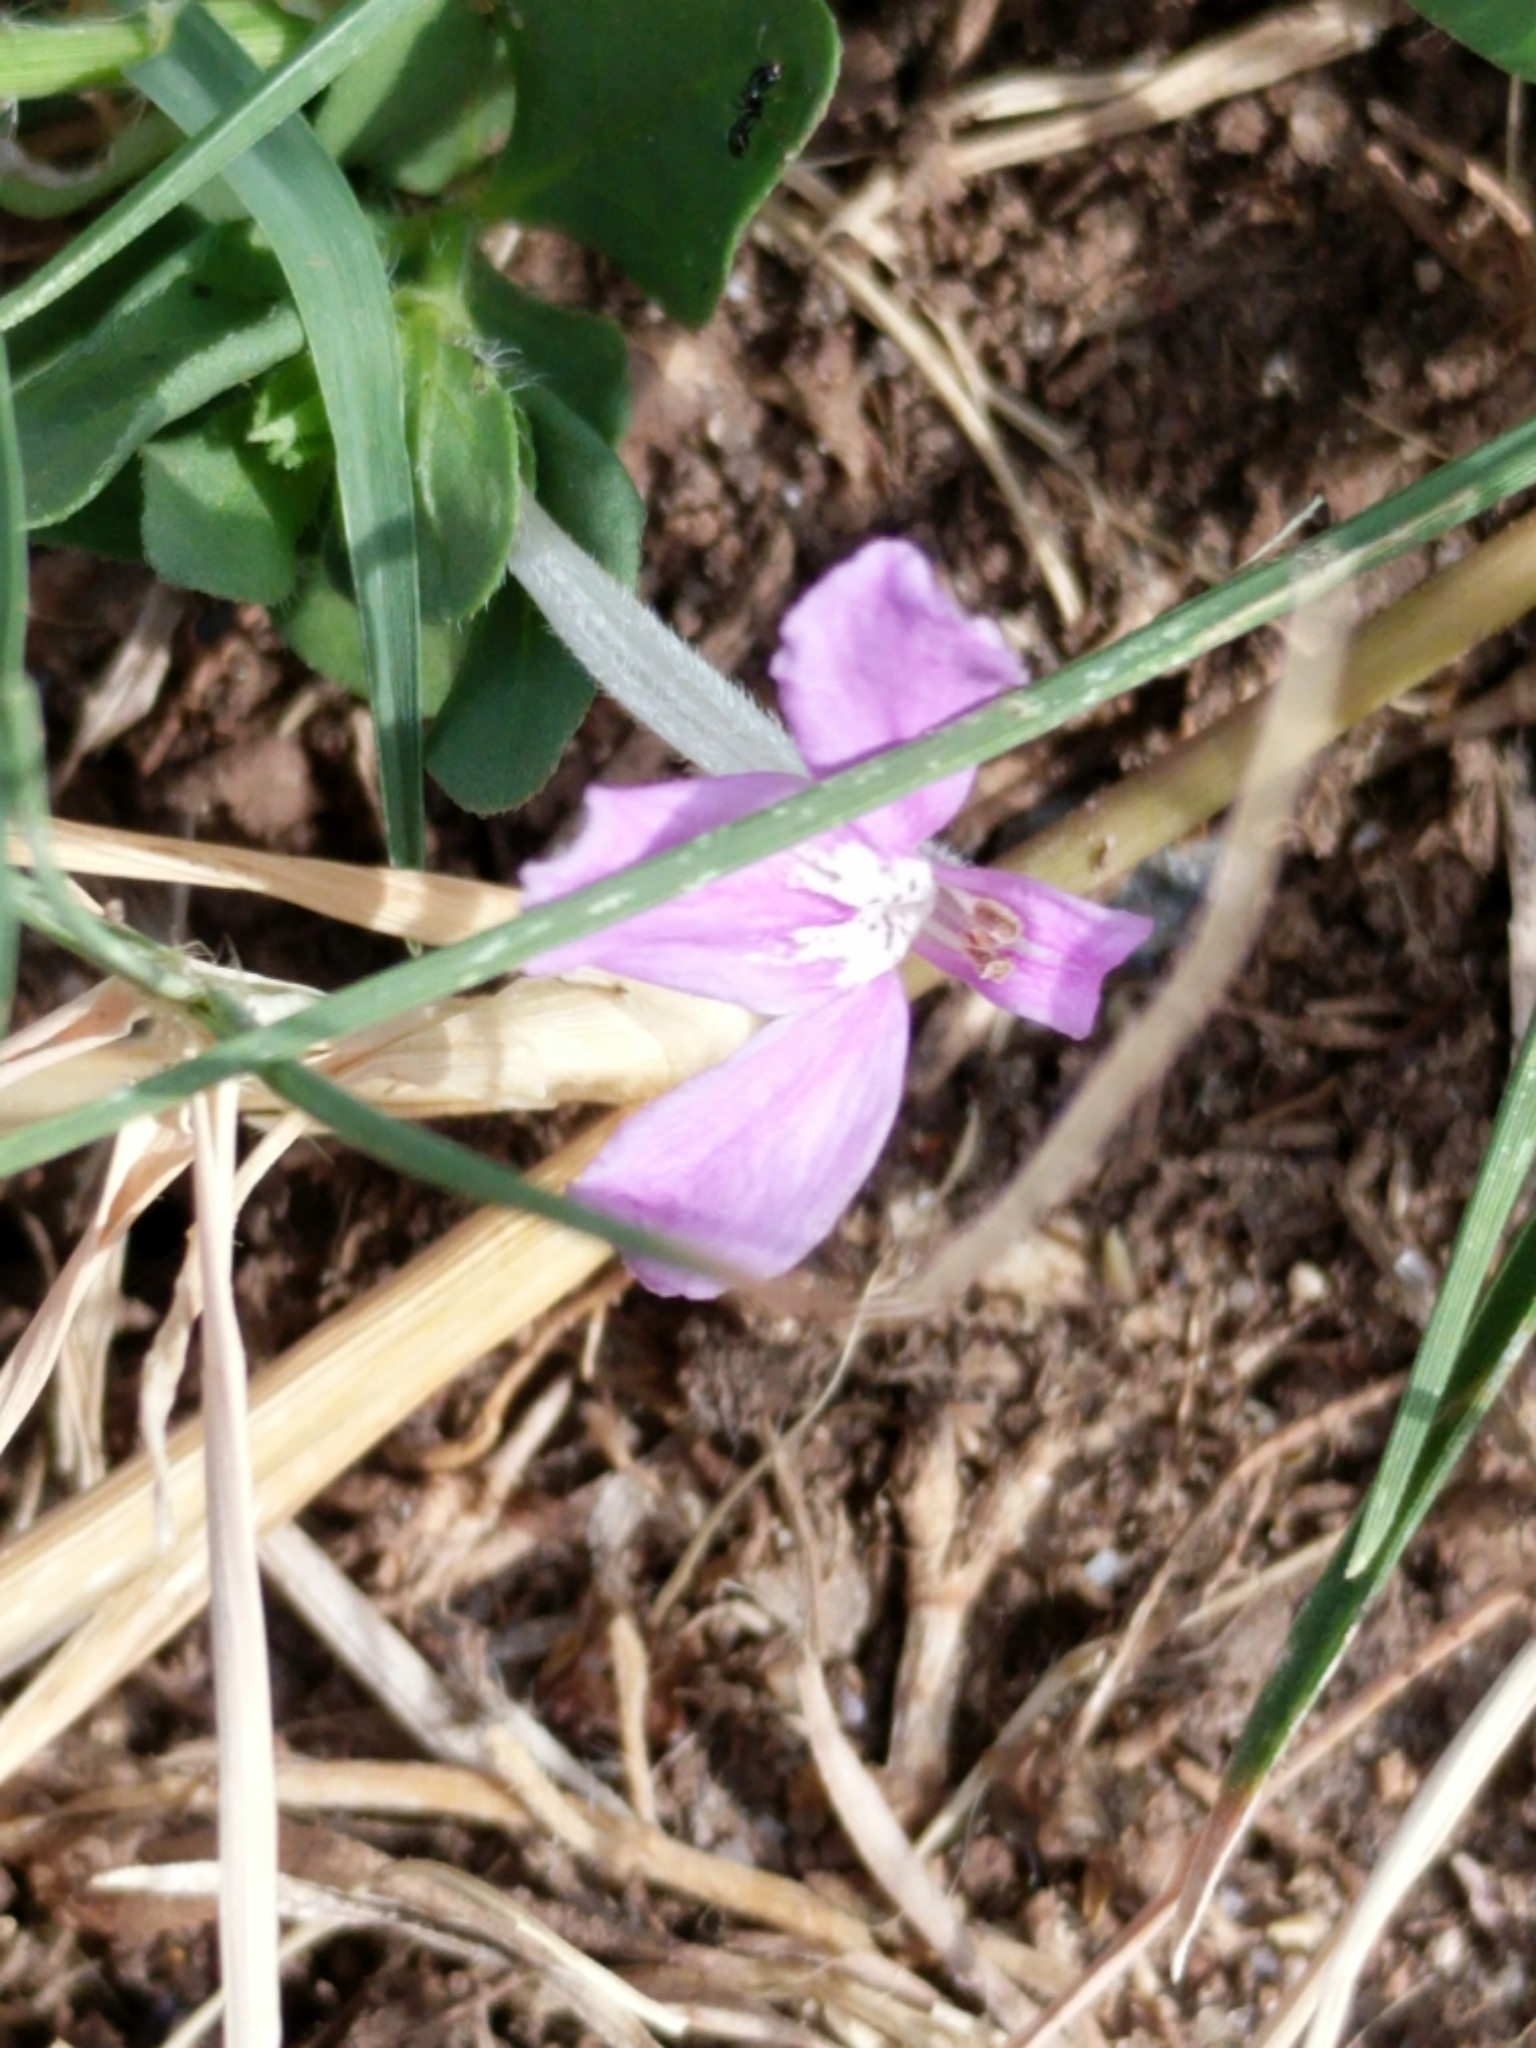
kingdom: Plantae
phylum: Tracheophyta
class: Magnoliopsida
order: Lamiales
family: Acanthaceae
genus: Justicia
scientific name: Justicia pilosella
